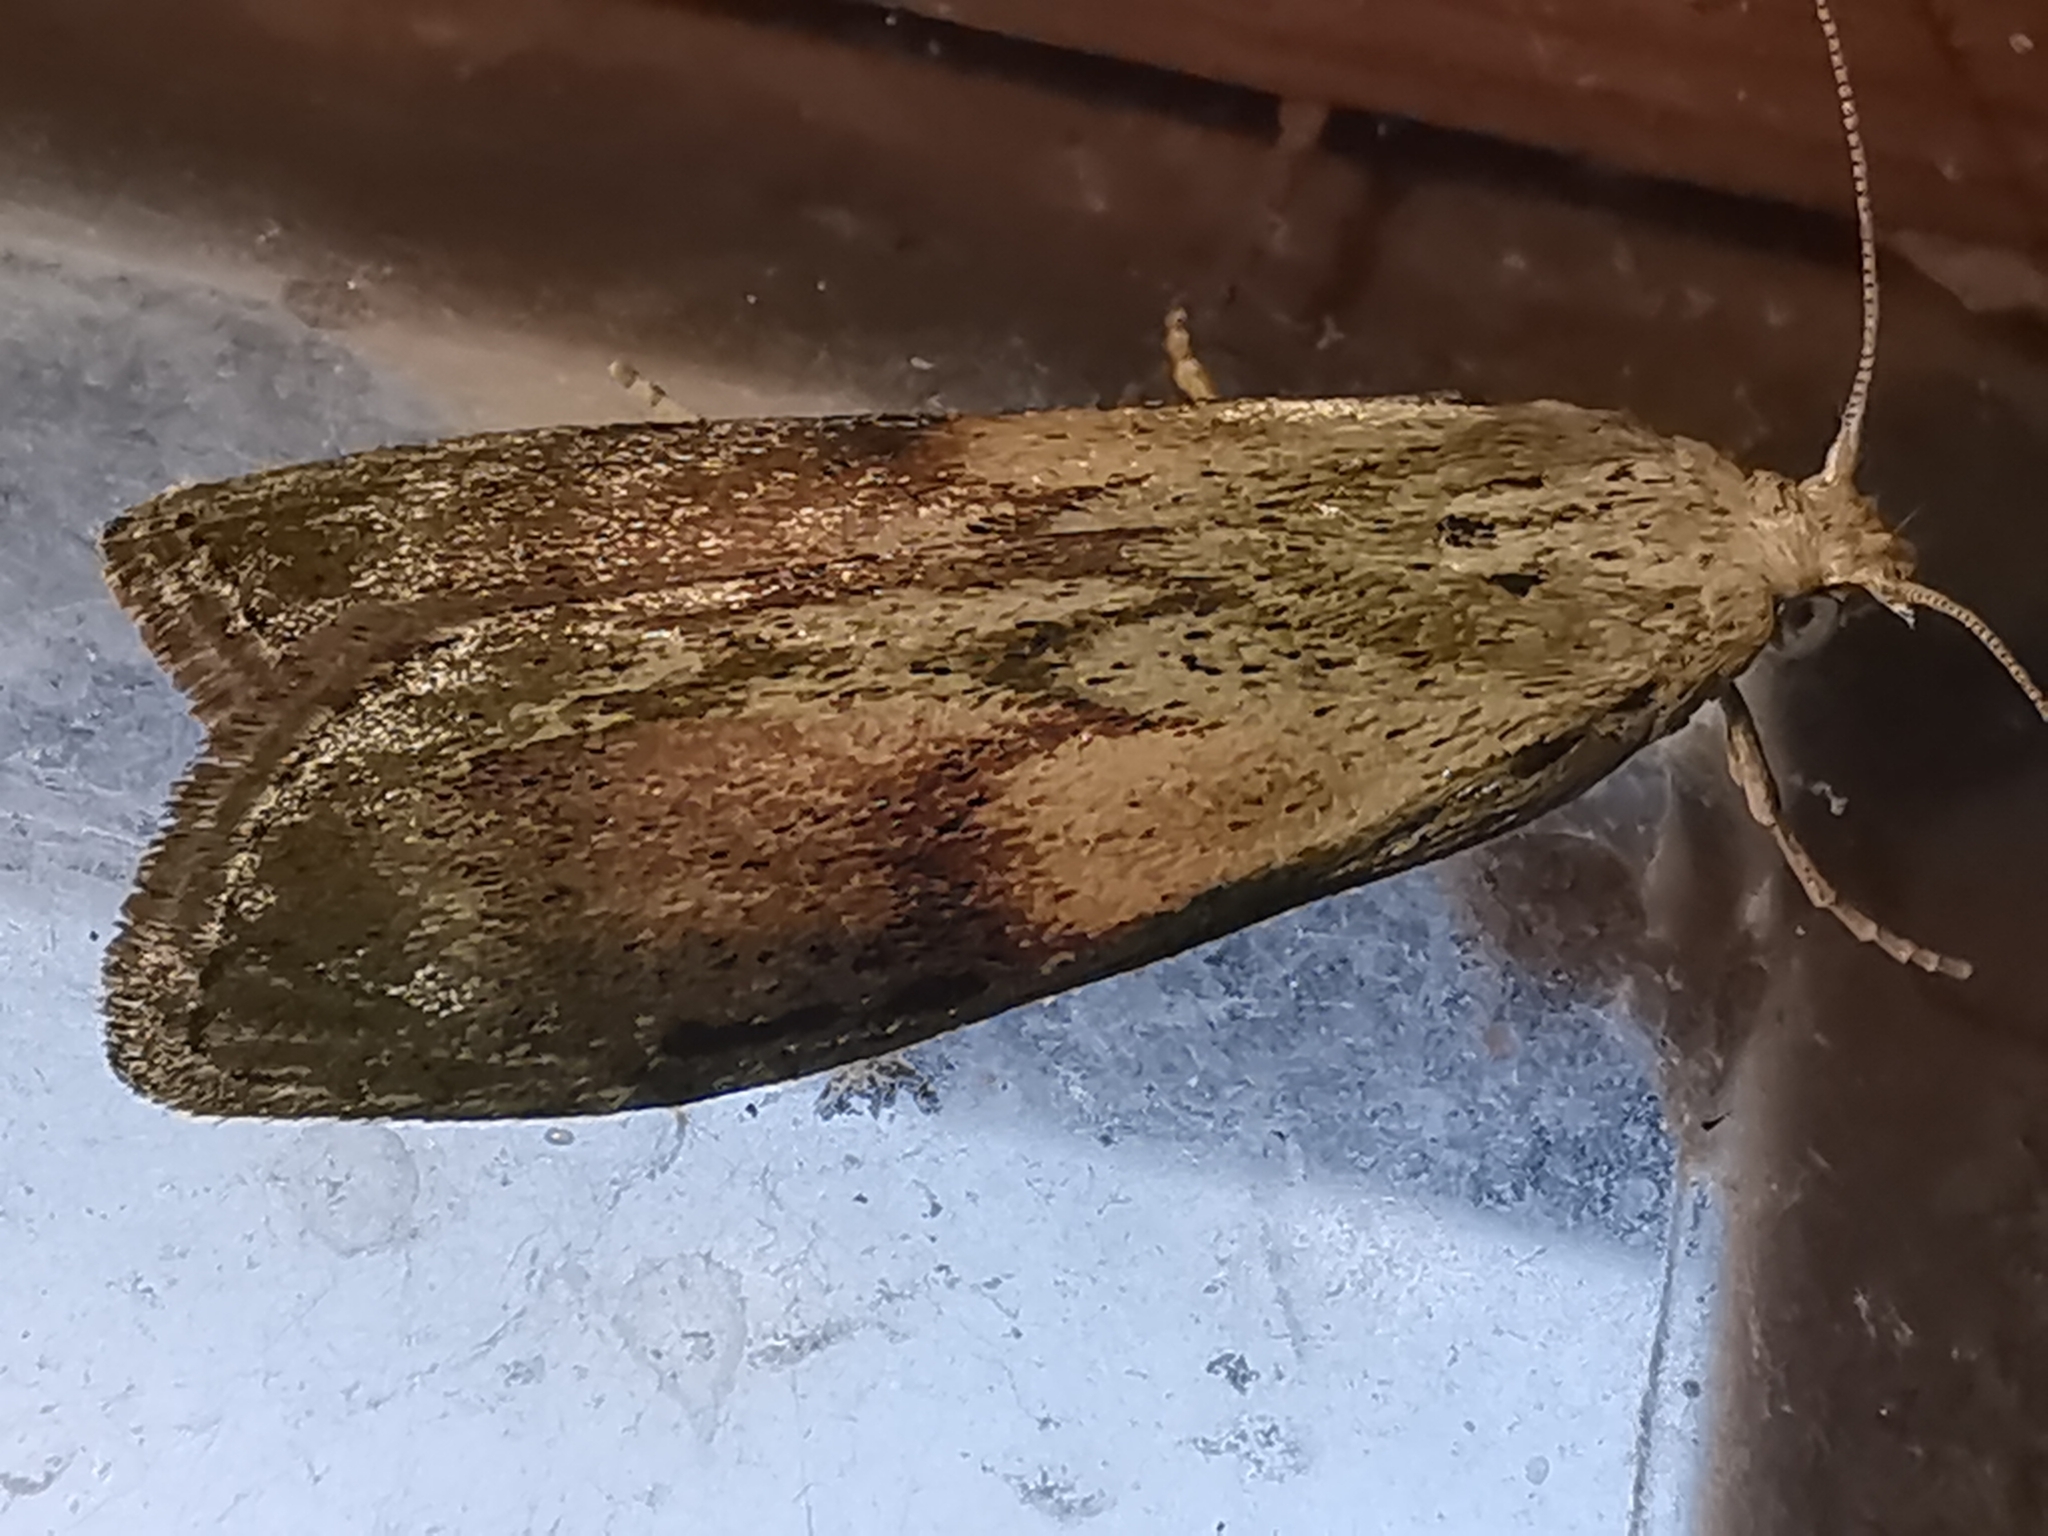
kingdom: Animalia
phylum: Arthropoda
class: Insecta
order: Lepidoptera
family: Pyralidae
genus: Aphomia
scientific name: Aphomia sociella
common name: Bee moth
